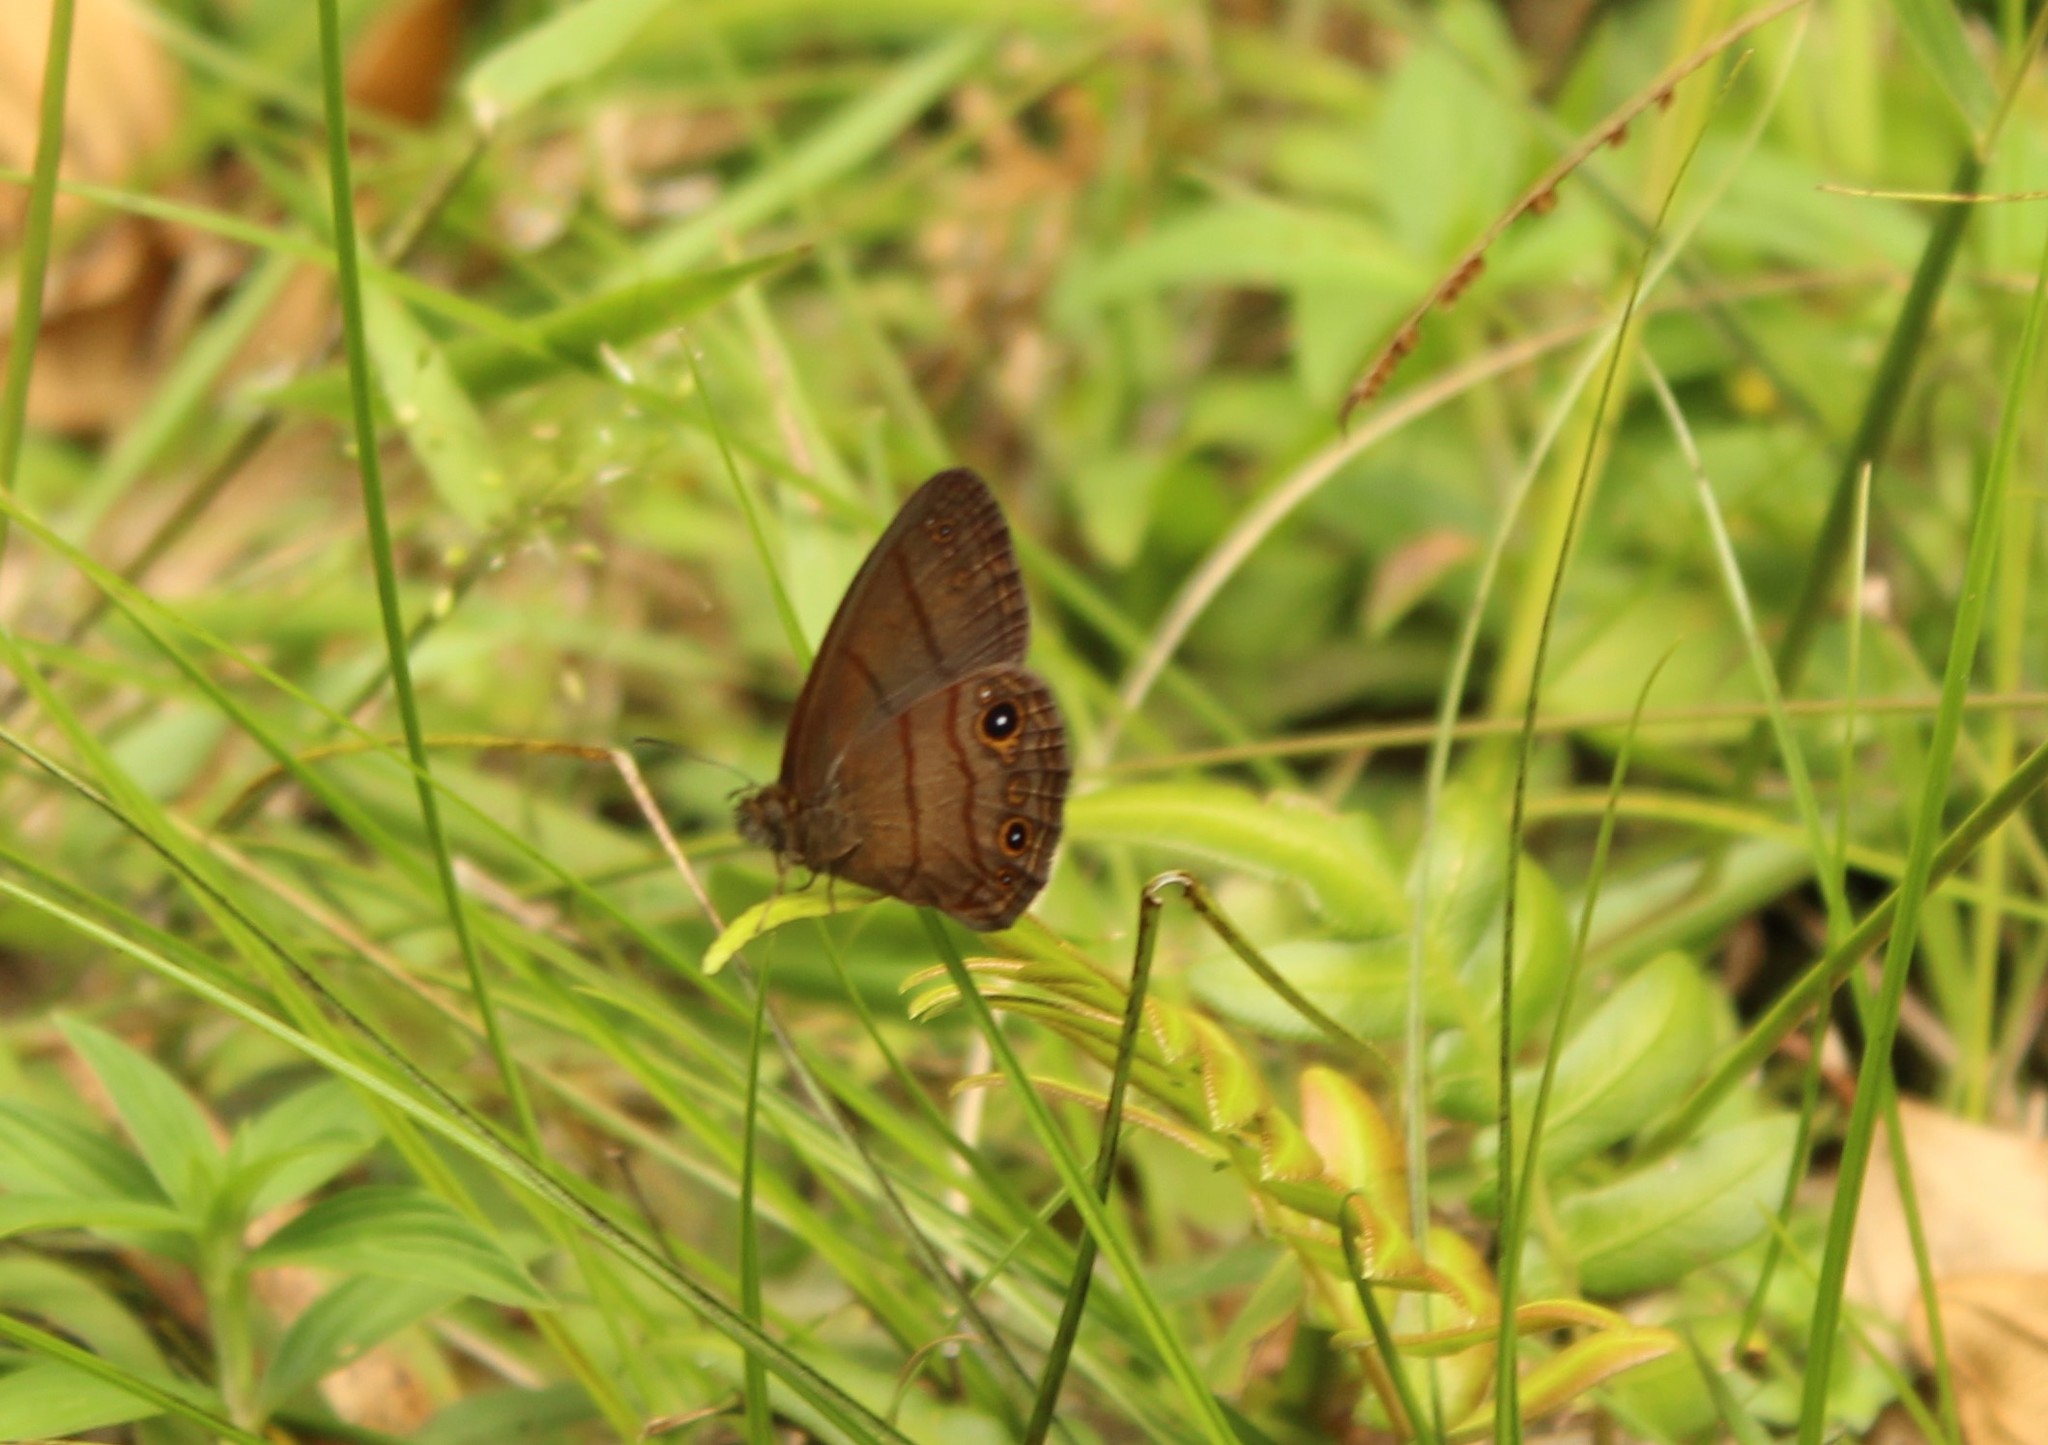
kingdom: Animalia
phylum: Arthropoda
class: Insecta
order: Lepidoptera
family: Nymphalidae
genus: Hermeuptychia
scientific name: Hermeuptychia harmonia
